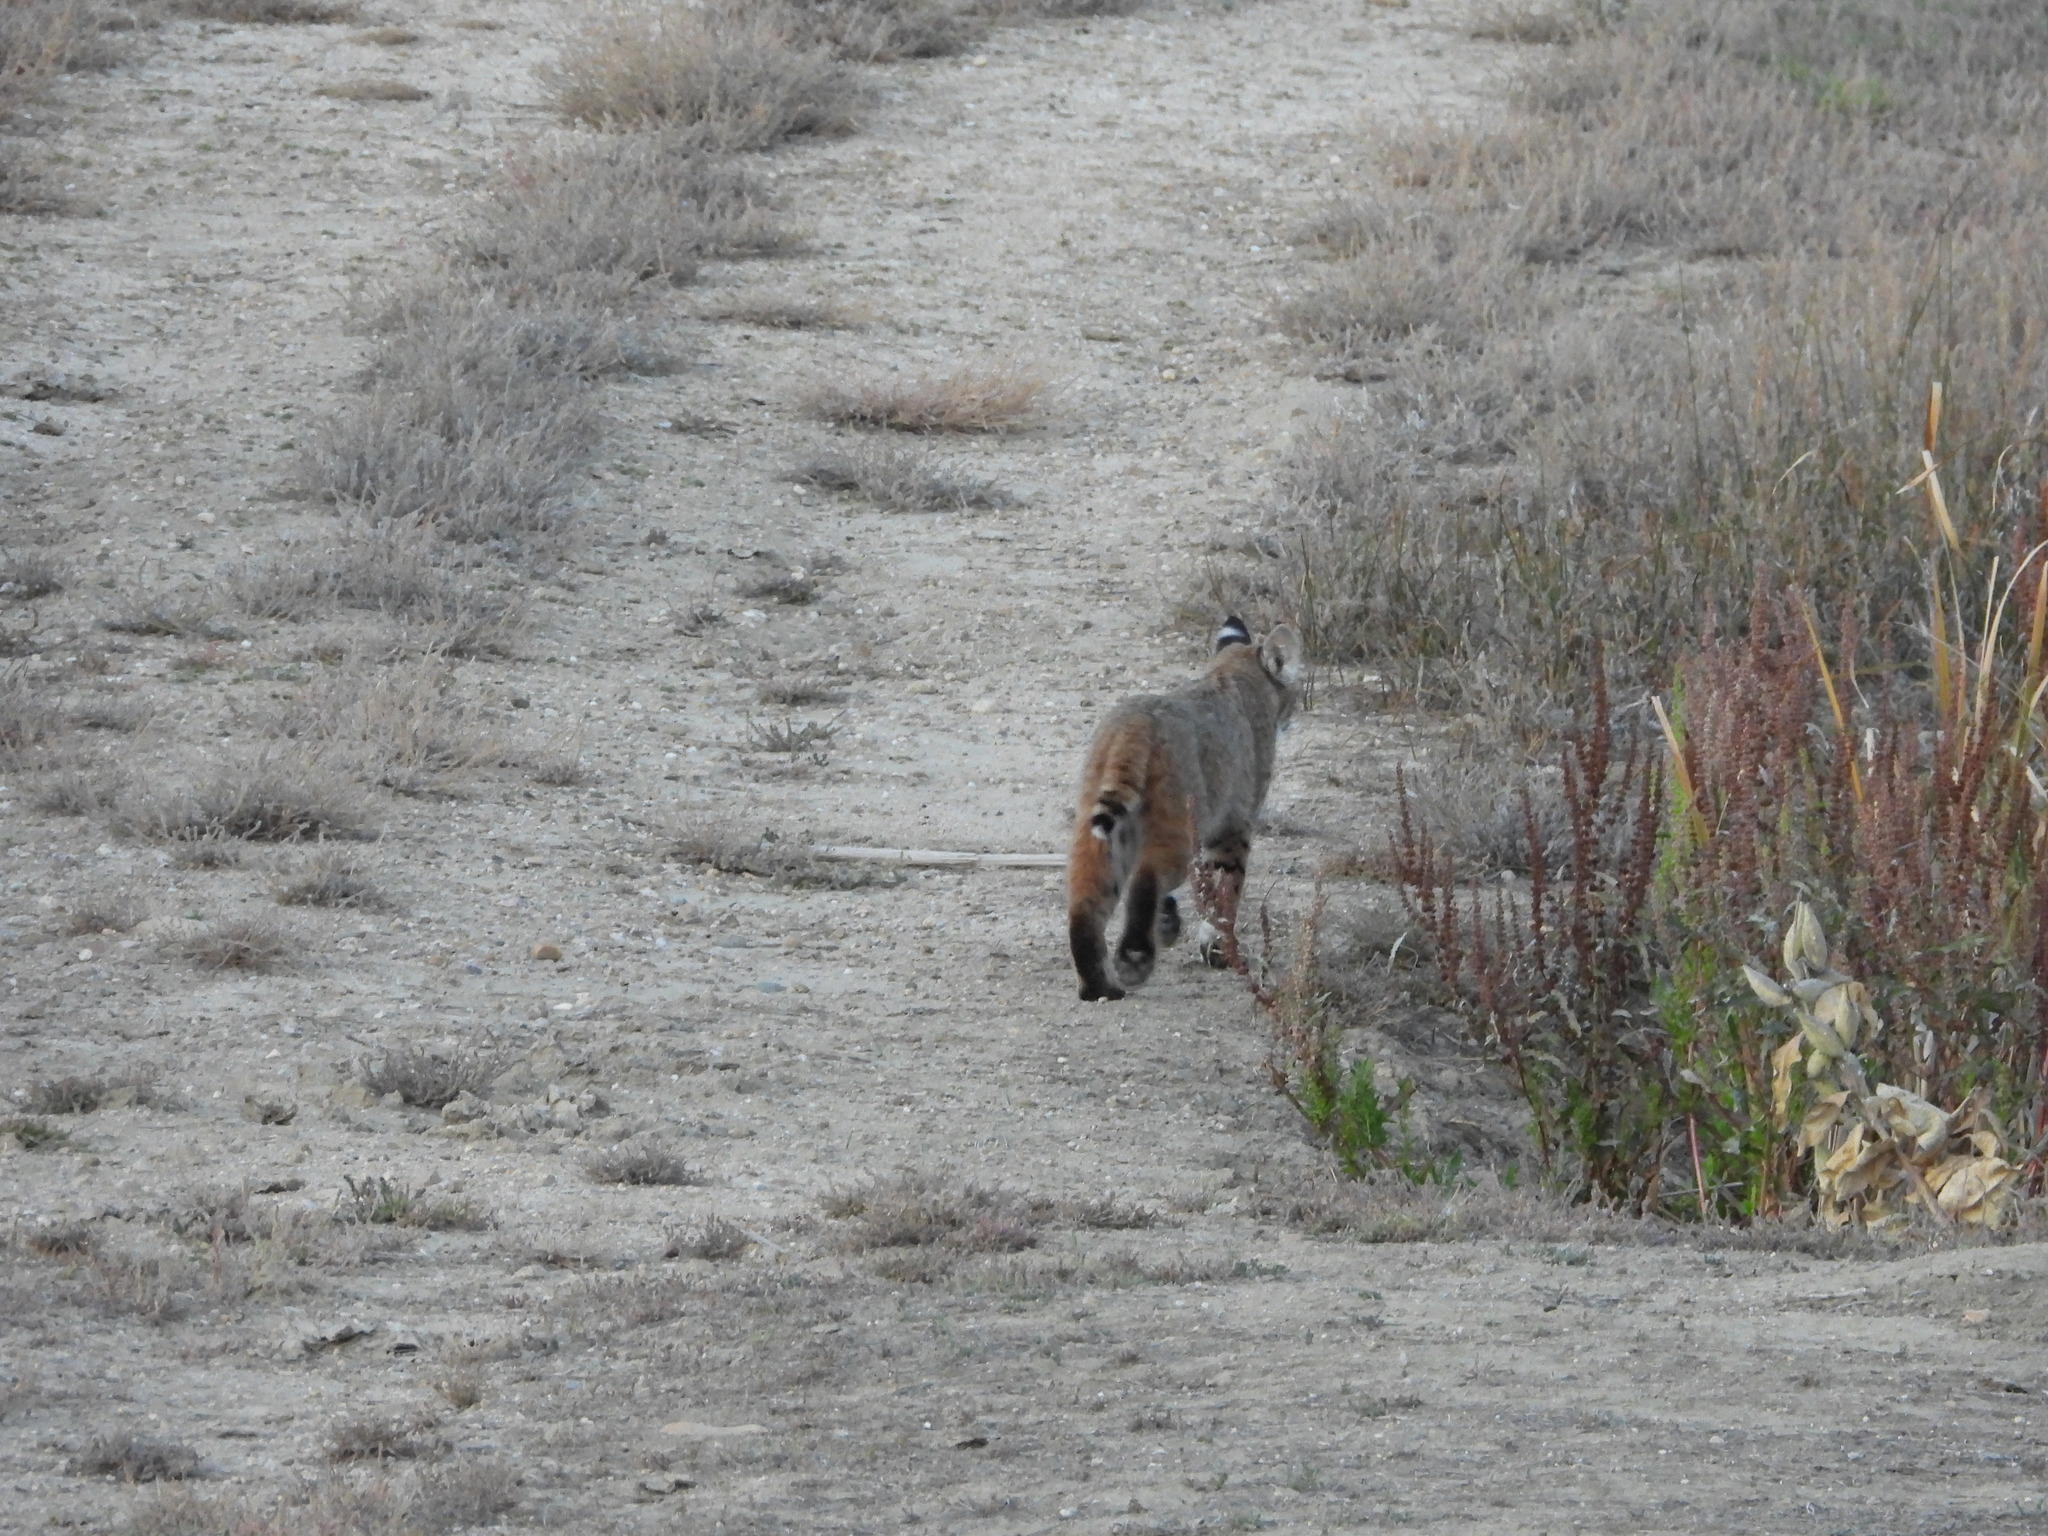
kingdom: Animalia
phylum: Chordata
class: Mammalia
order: Carnivora
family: Felidae
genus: Lynx
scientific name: Lynx rufus
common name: Bobcat
